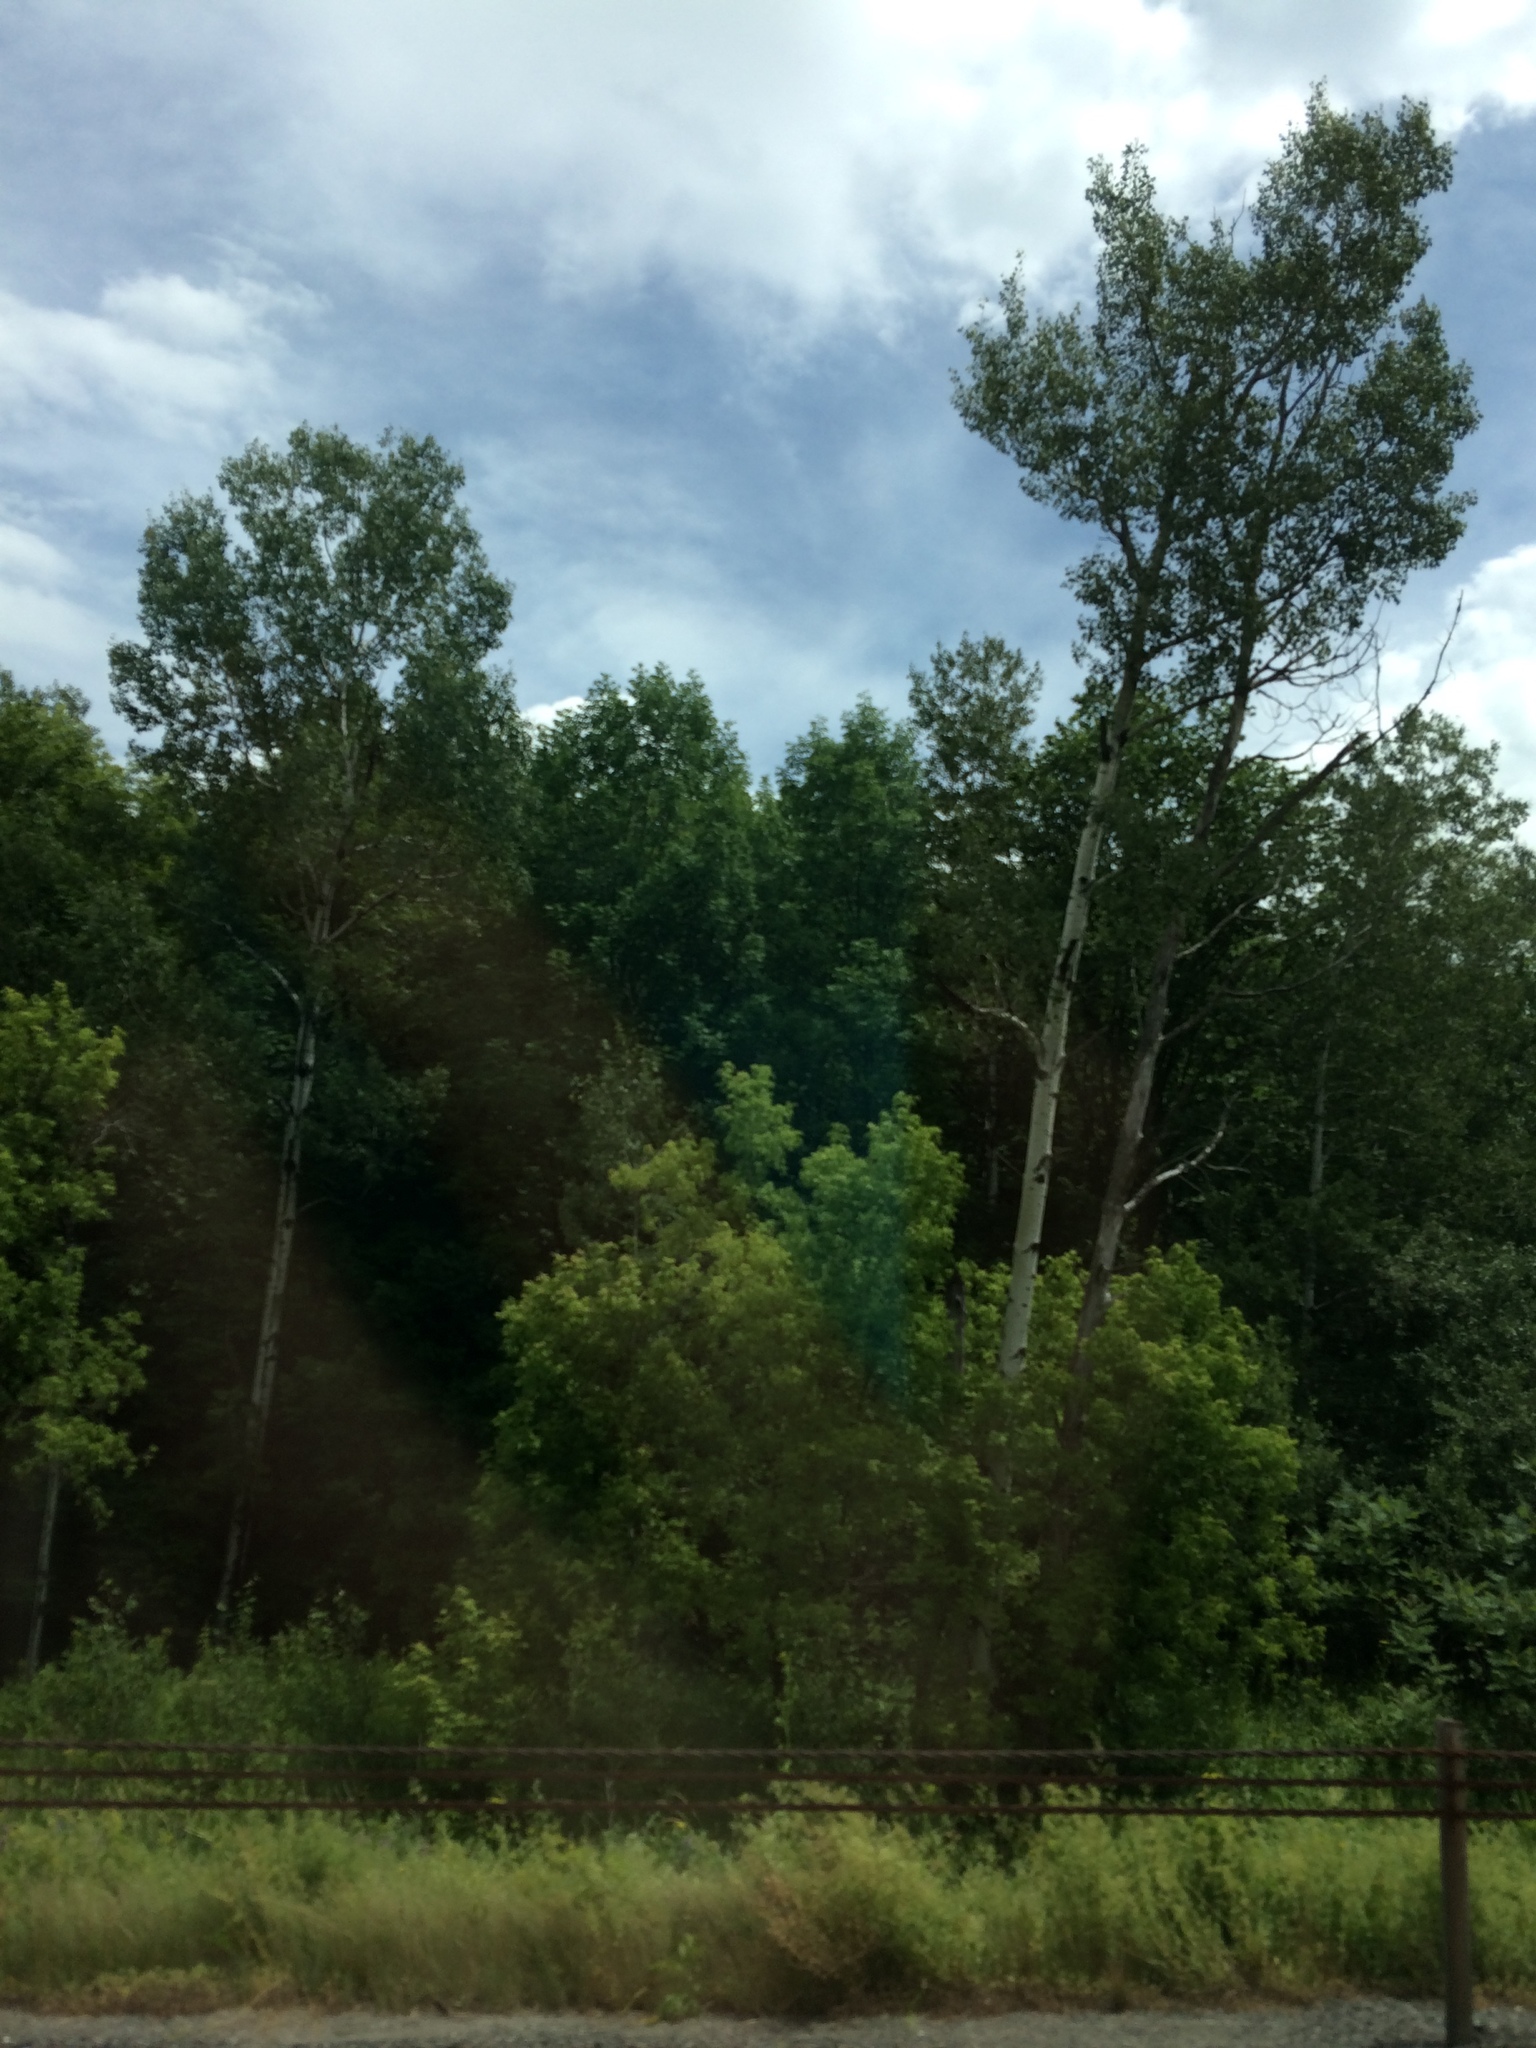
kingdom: Plantae
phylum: Tracheophyta
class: Magnoliopsida
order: Malpighiales
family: Salicaceae
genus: Populus
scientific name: Populus tremuloides
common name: Quaking aspen
